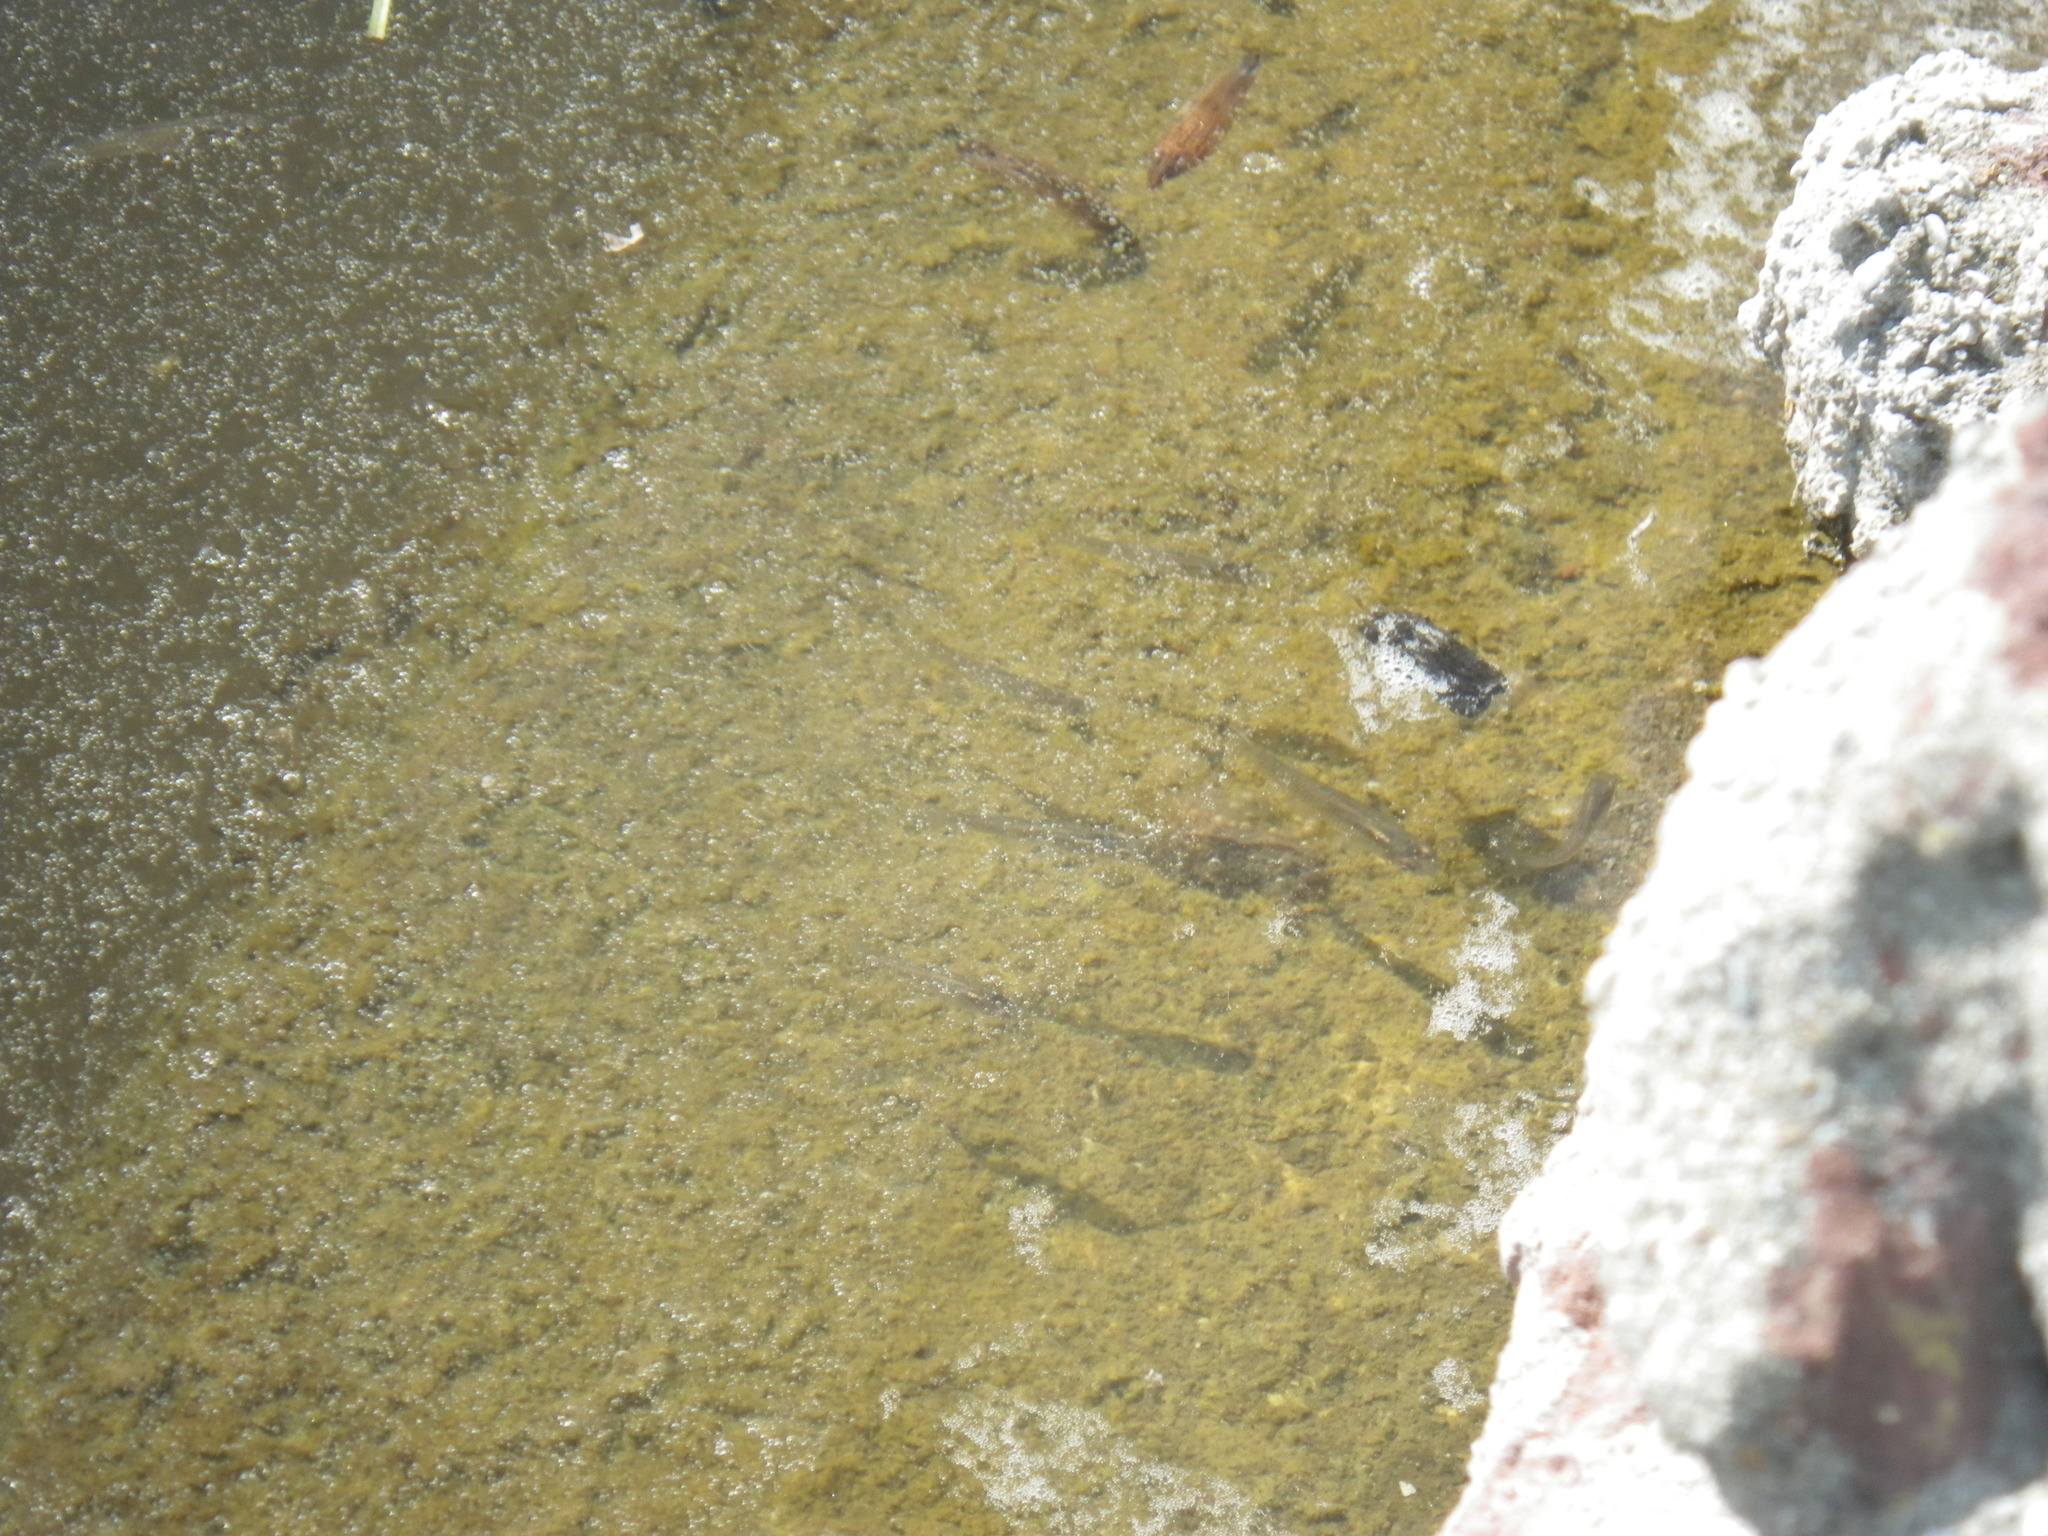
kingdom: Animalia
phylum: Chordata
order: Cyprinodontiformes
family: Poeciliidae
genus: Gambusia
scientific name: Gambusia affinis
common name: Mosquitofish
